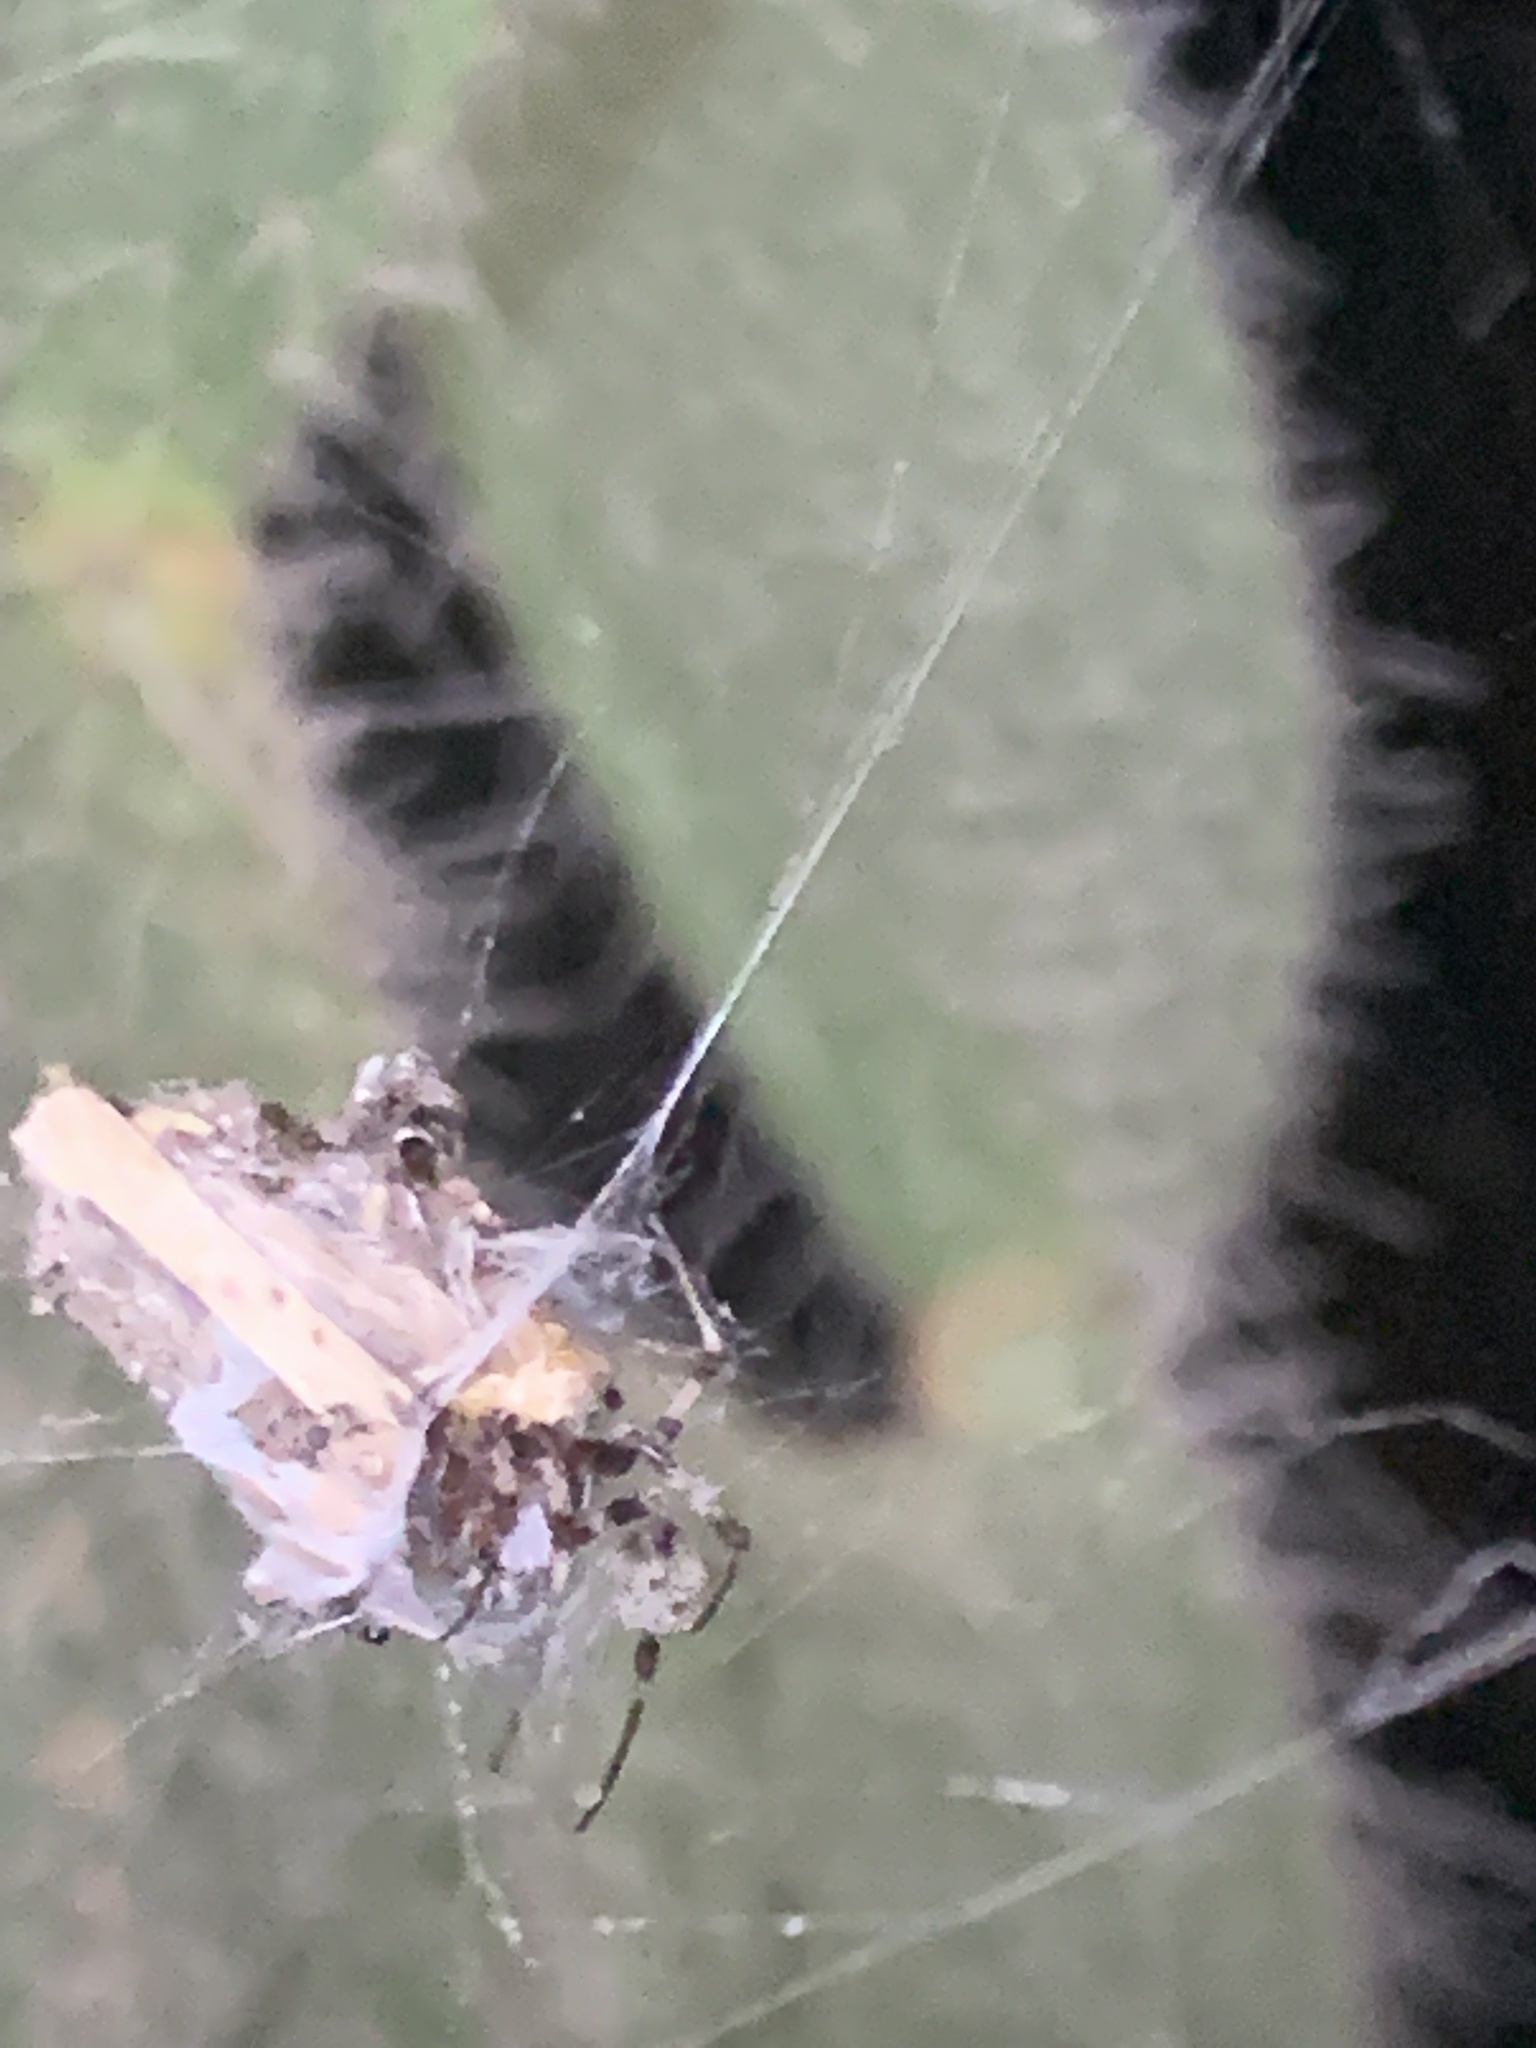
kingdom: Animalia
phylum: Arthropoda
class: Arachnida
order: Araneae
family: Araneidae
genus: Metepeira
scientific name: Metepeira
